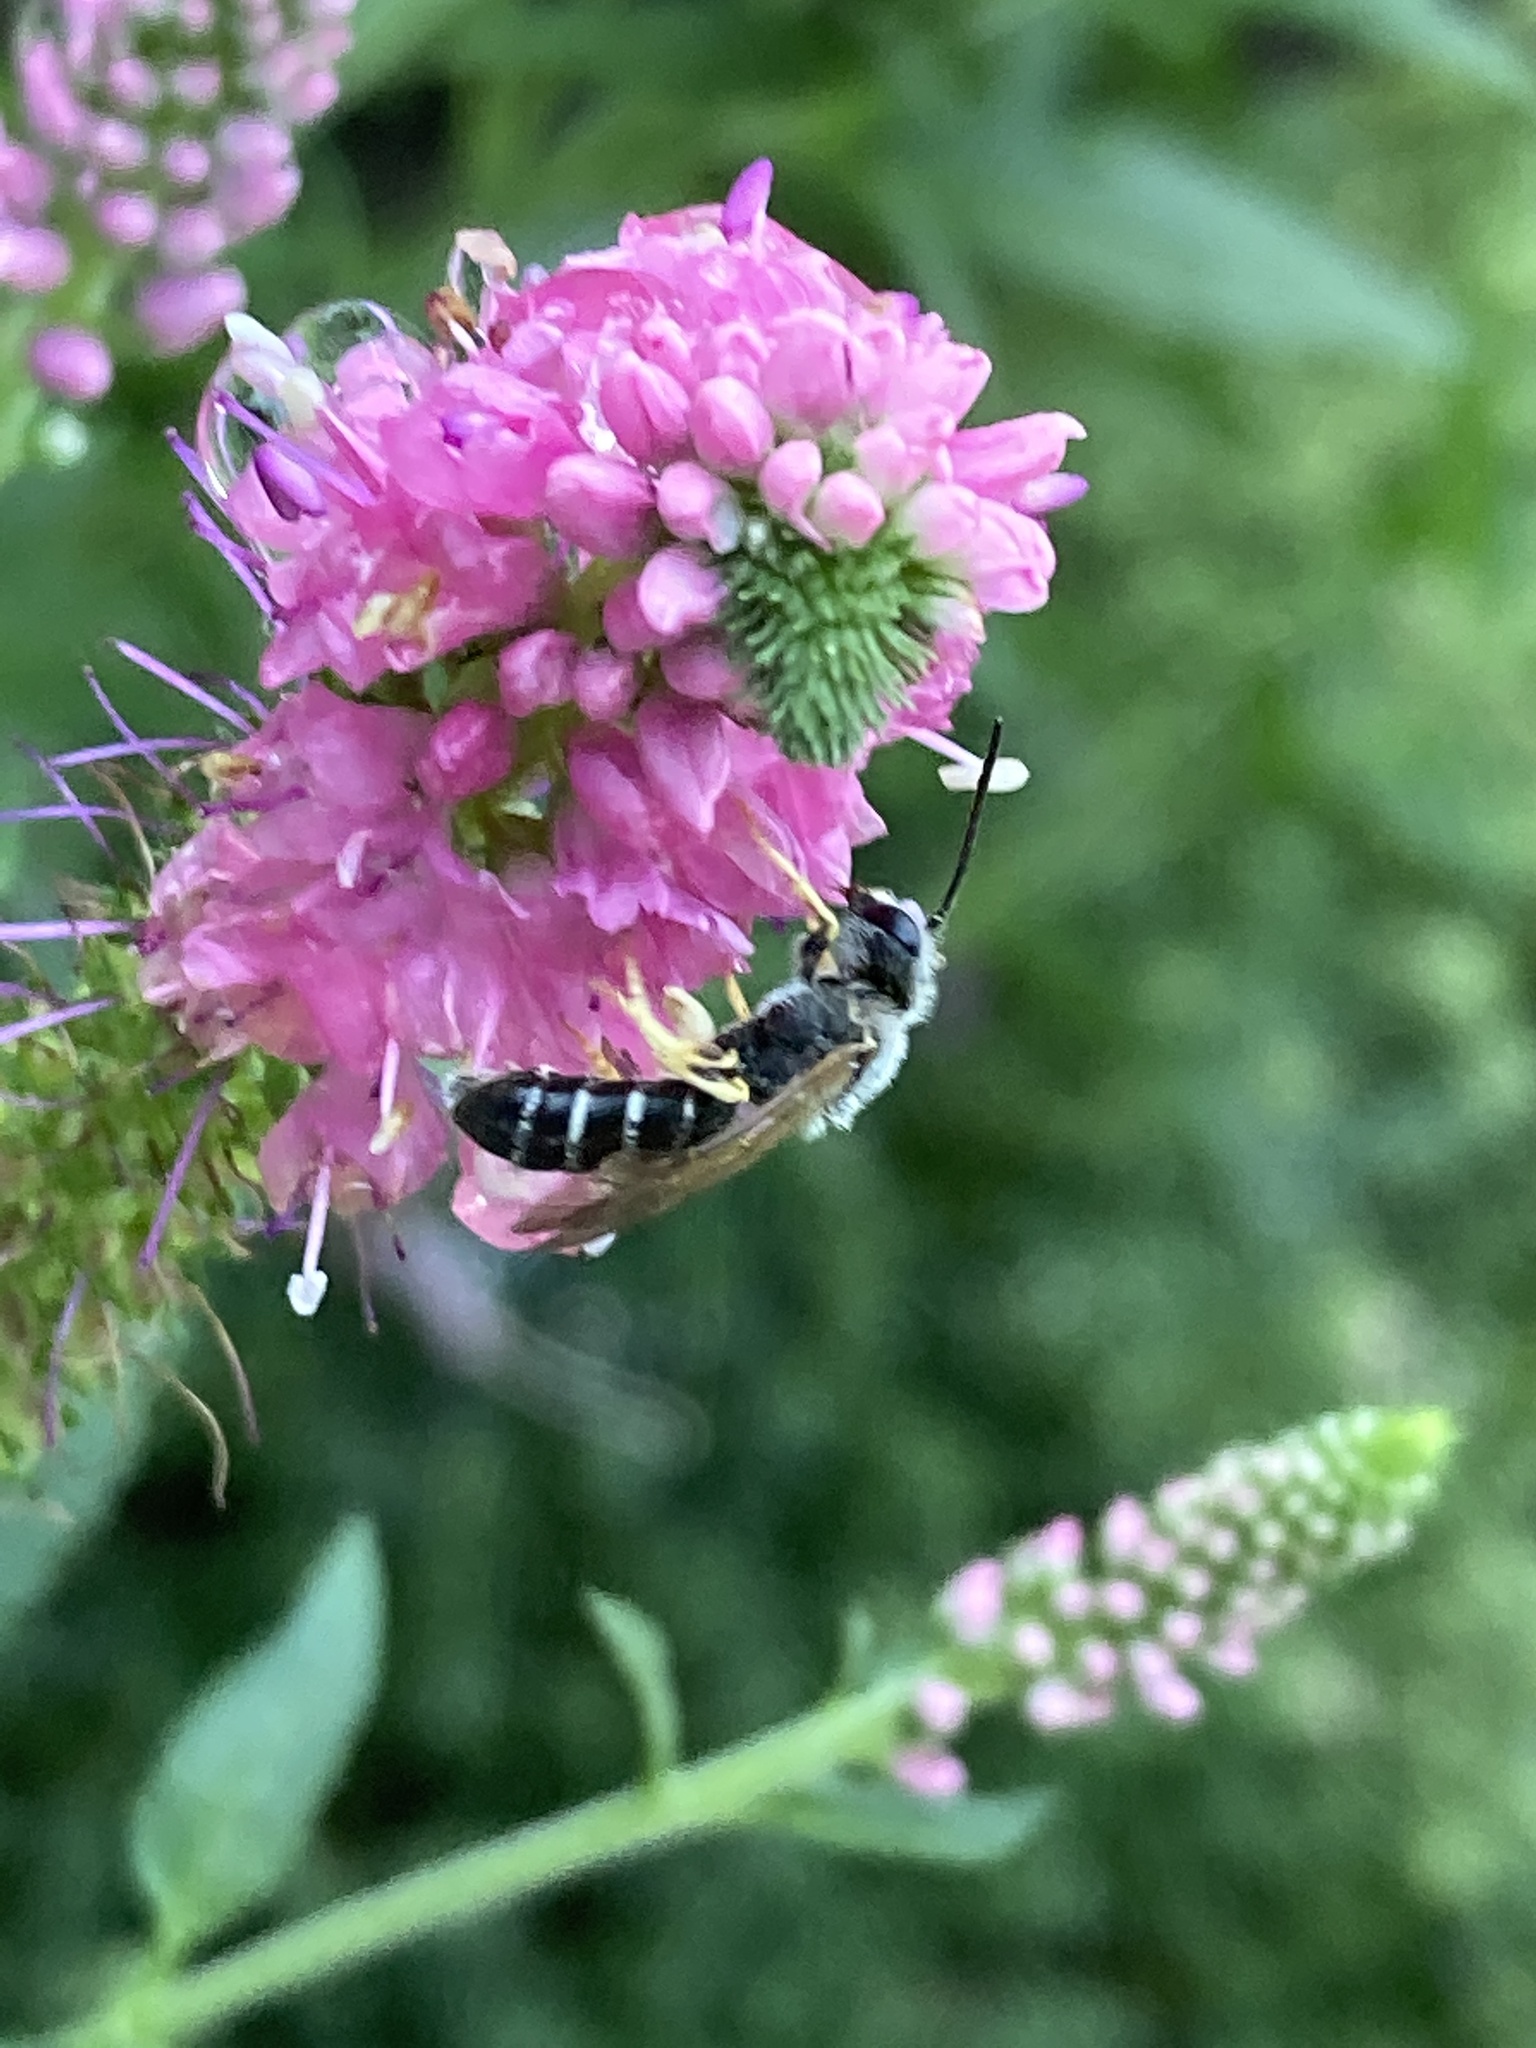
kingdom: Animalia
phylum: Arthropoda
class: Insecta
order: Hymenoptera
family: Halictidae
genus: Halictus
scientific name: Halictus rubicundus
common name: Orange-legged furrow bee
